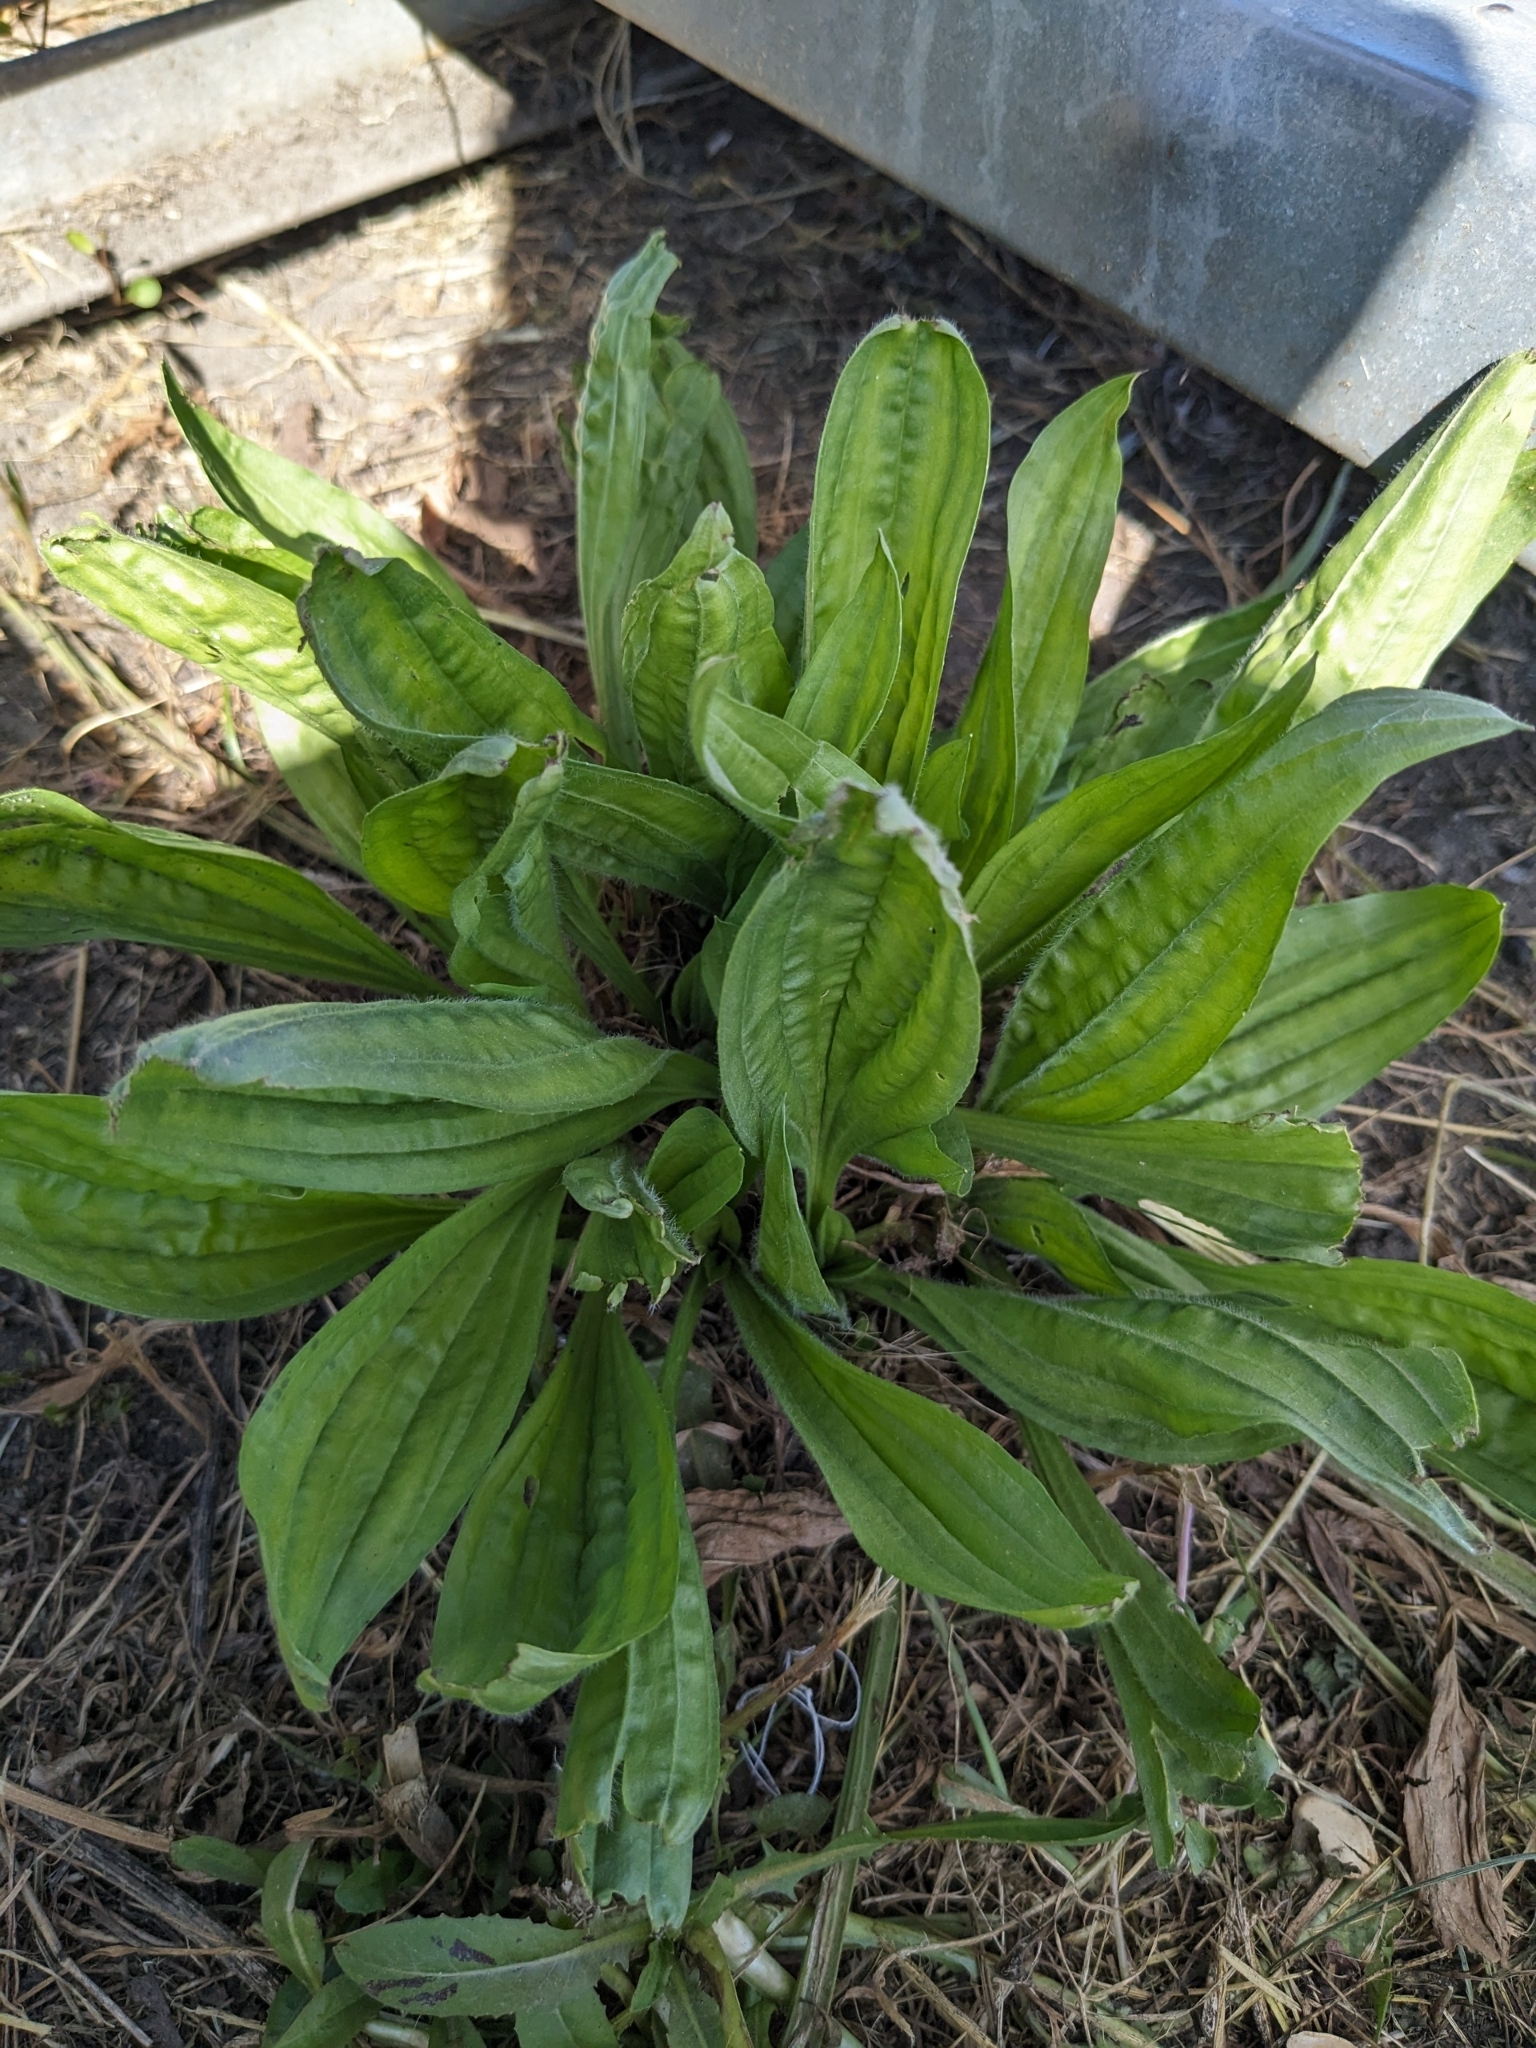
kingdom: Plantae
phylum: Tracheophyta
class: Magnoliopsida
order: Lamiales
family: Plantaginaceae
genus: Plantago
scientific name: Plantago lanceolata
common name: Ribwort plantain
